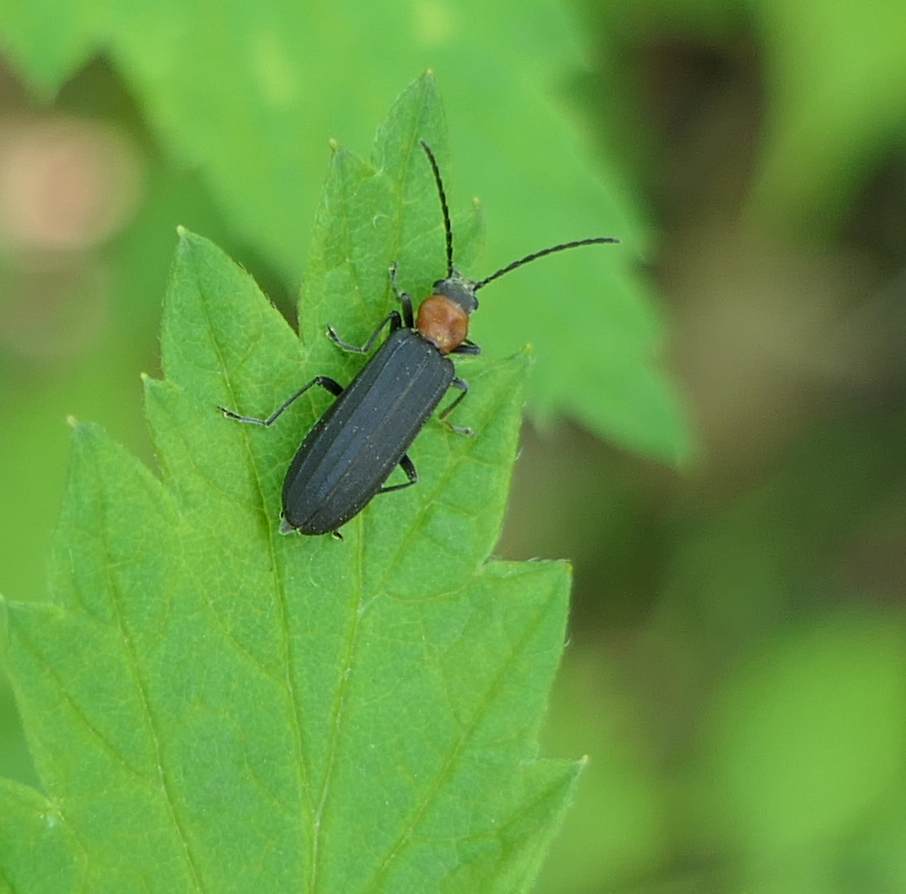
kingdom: Animalia
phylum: Arthropoda
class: Insecta
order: Coleoptera
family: Oedemeridae
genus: Ischnomera
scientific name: Ischnomera
